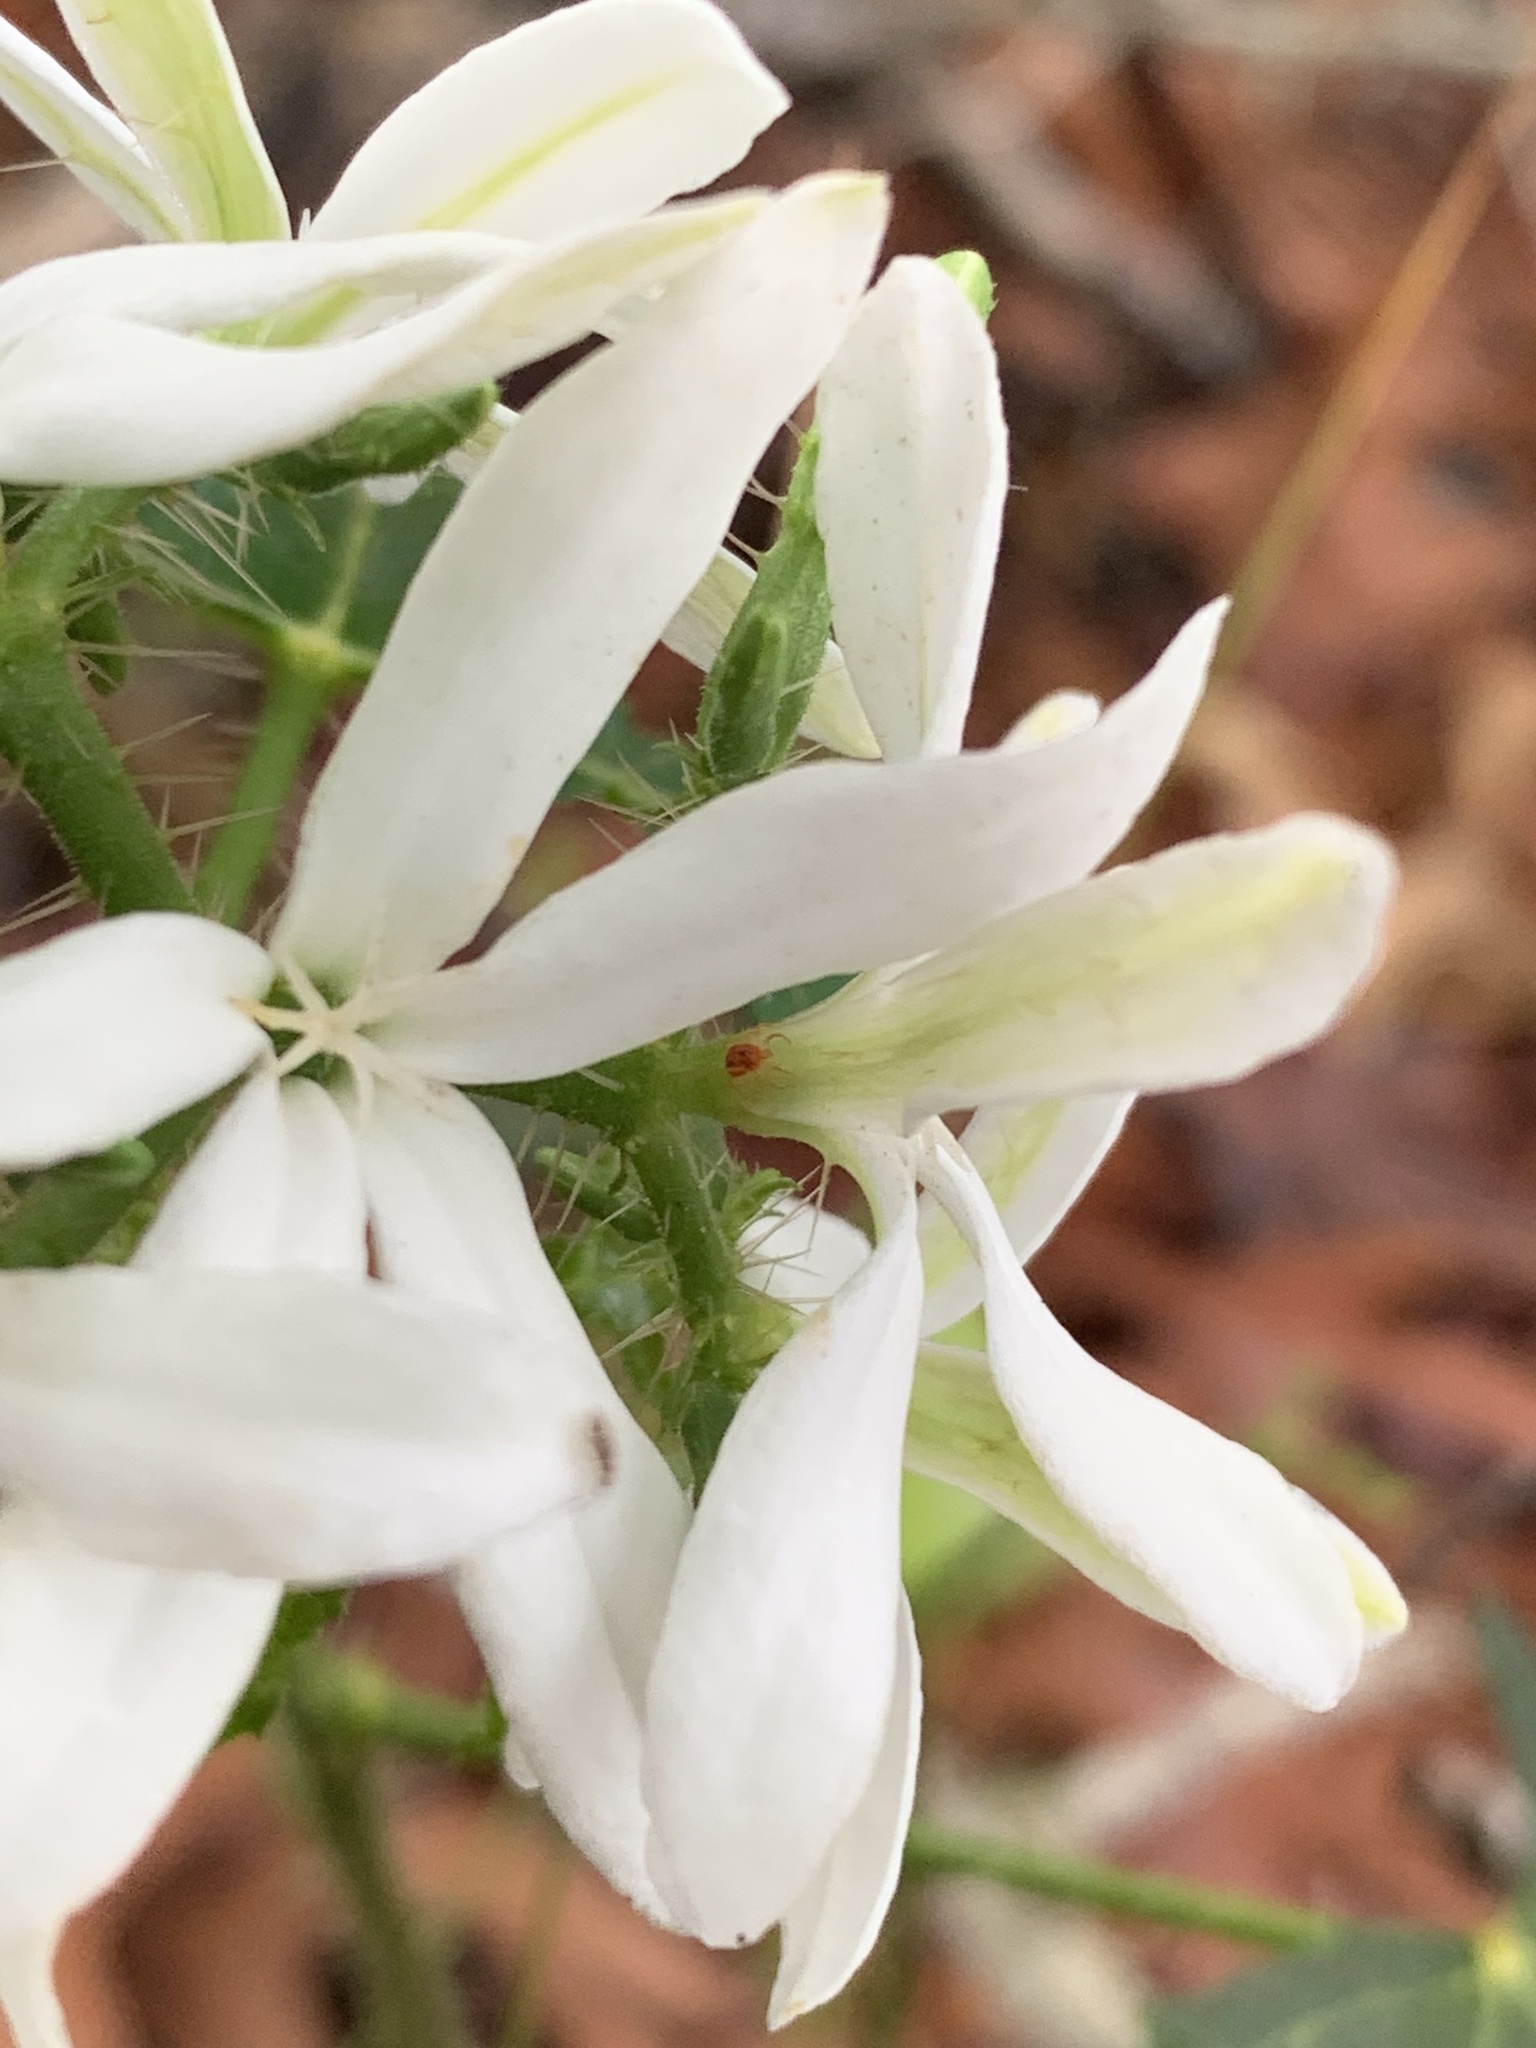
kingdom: Plantae
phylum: Tracheophyta
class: Magnoliopsida
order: Malpighiales
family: Euphorbiaceae
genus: Cnidoscolus
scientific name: Cnidoscolus stimulosus
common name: Bull-nettle
